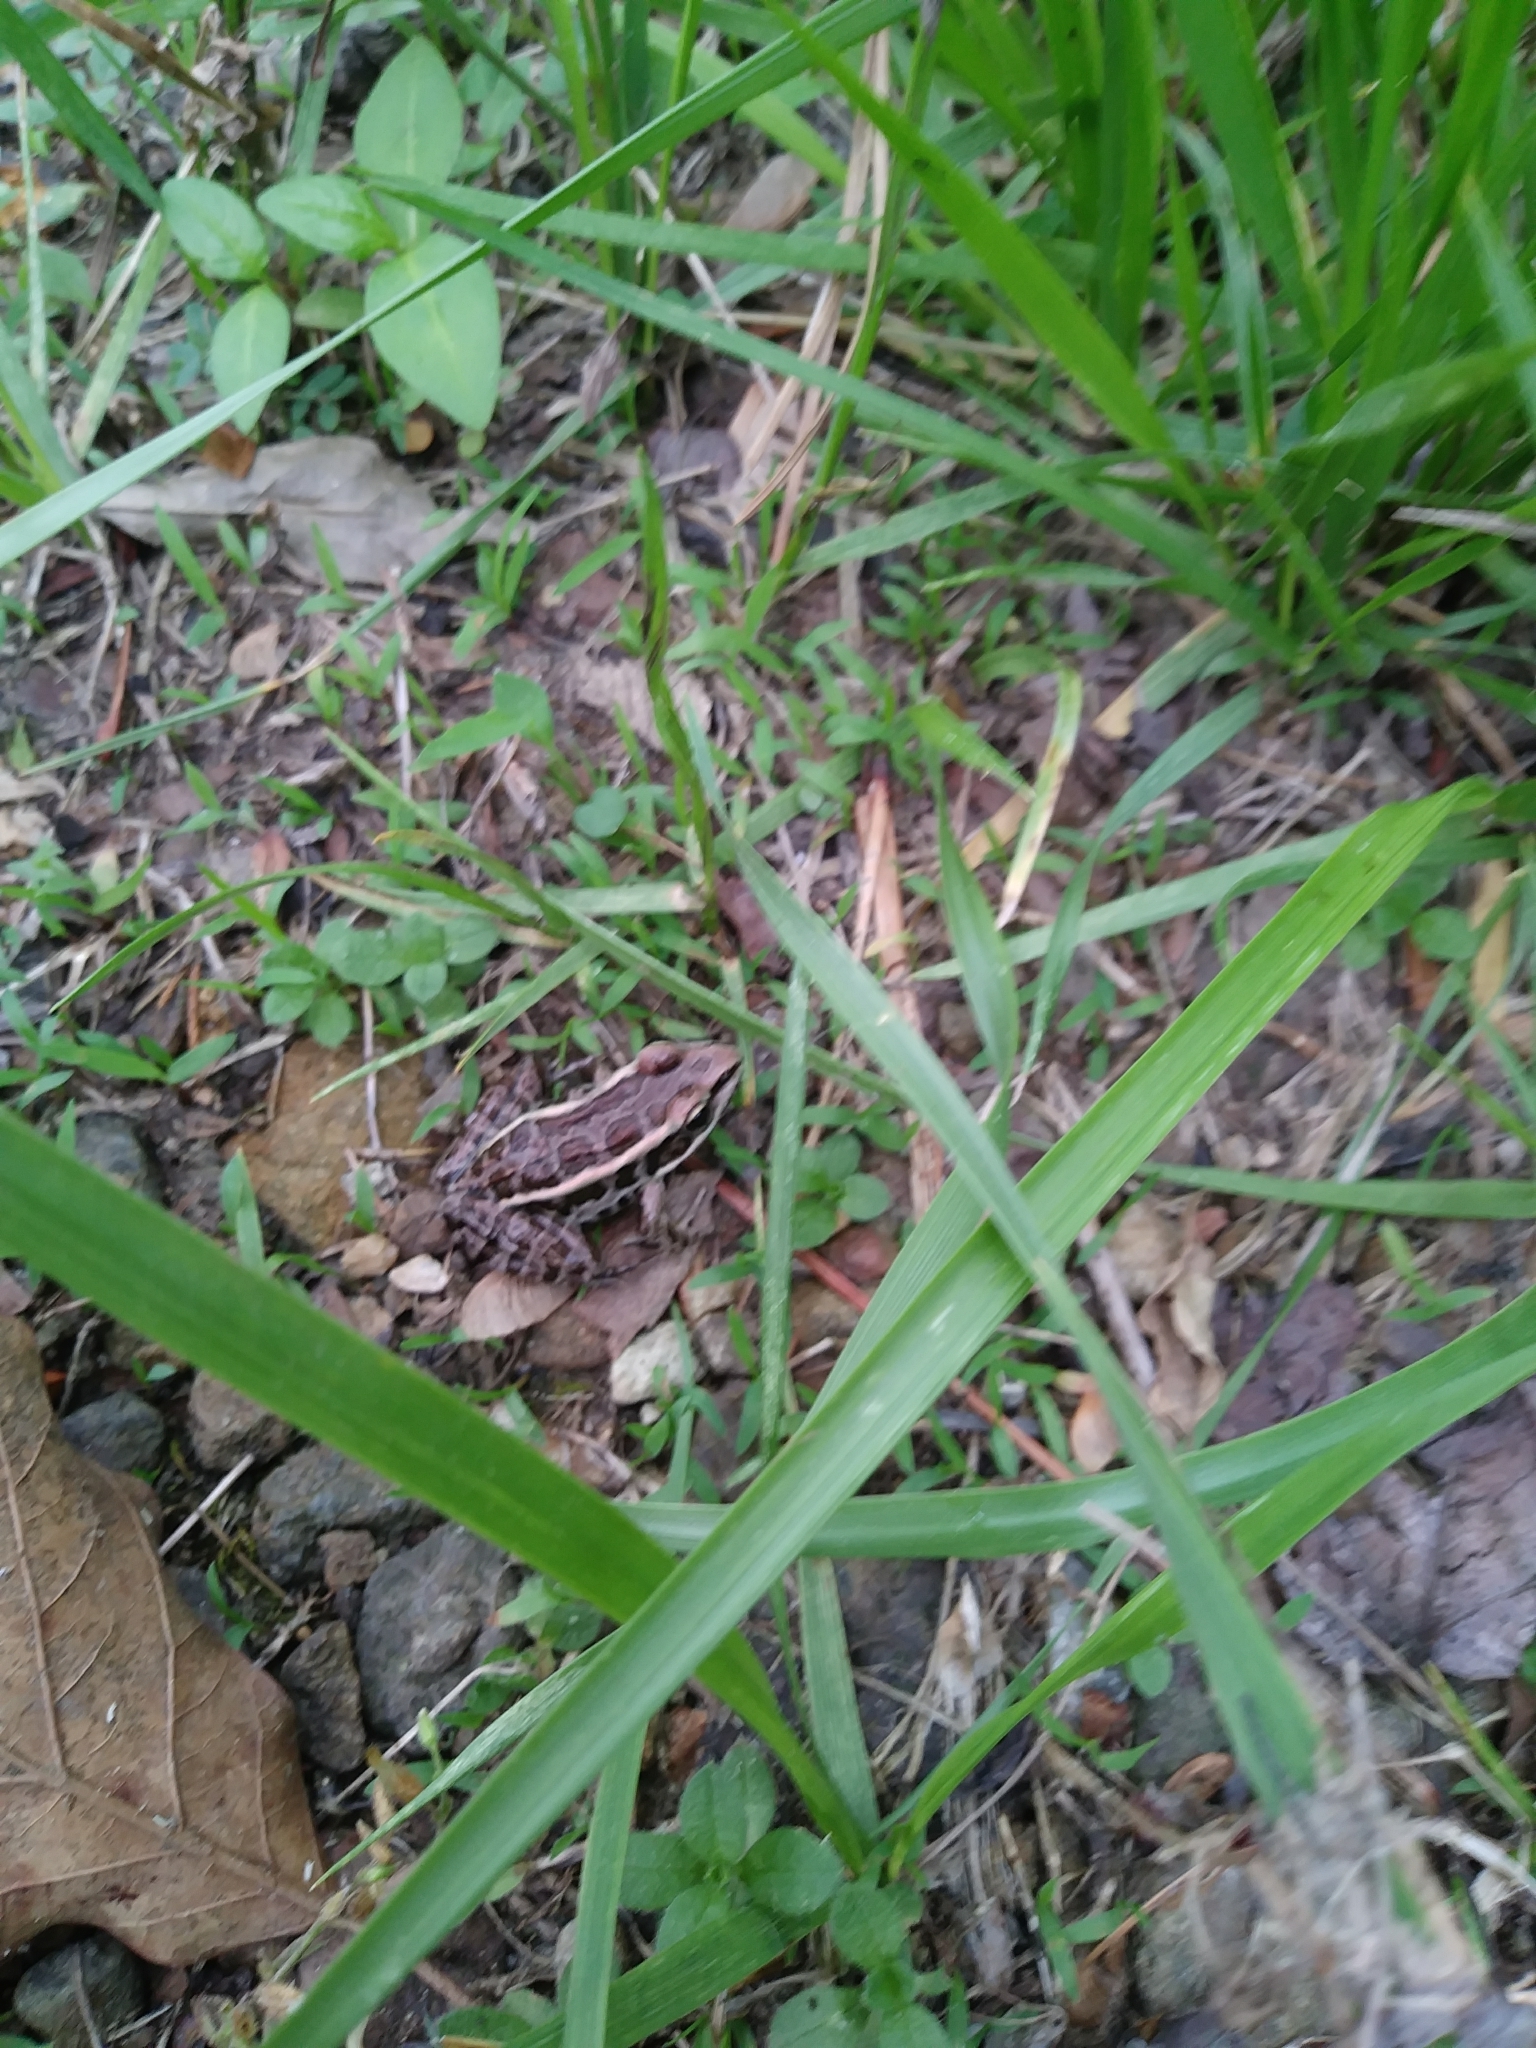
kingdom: Animalia
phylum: Chordata
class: Amphibia
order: Anura
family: Ranidae
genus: Lithobates
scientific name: Lithobates palustris
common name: Pickerel frog
